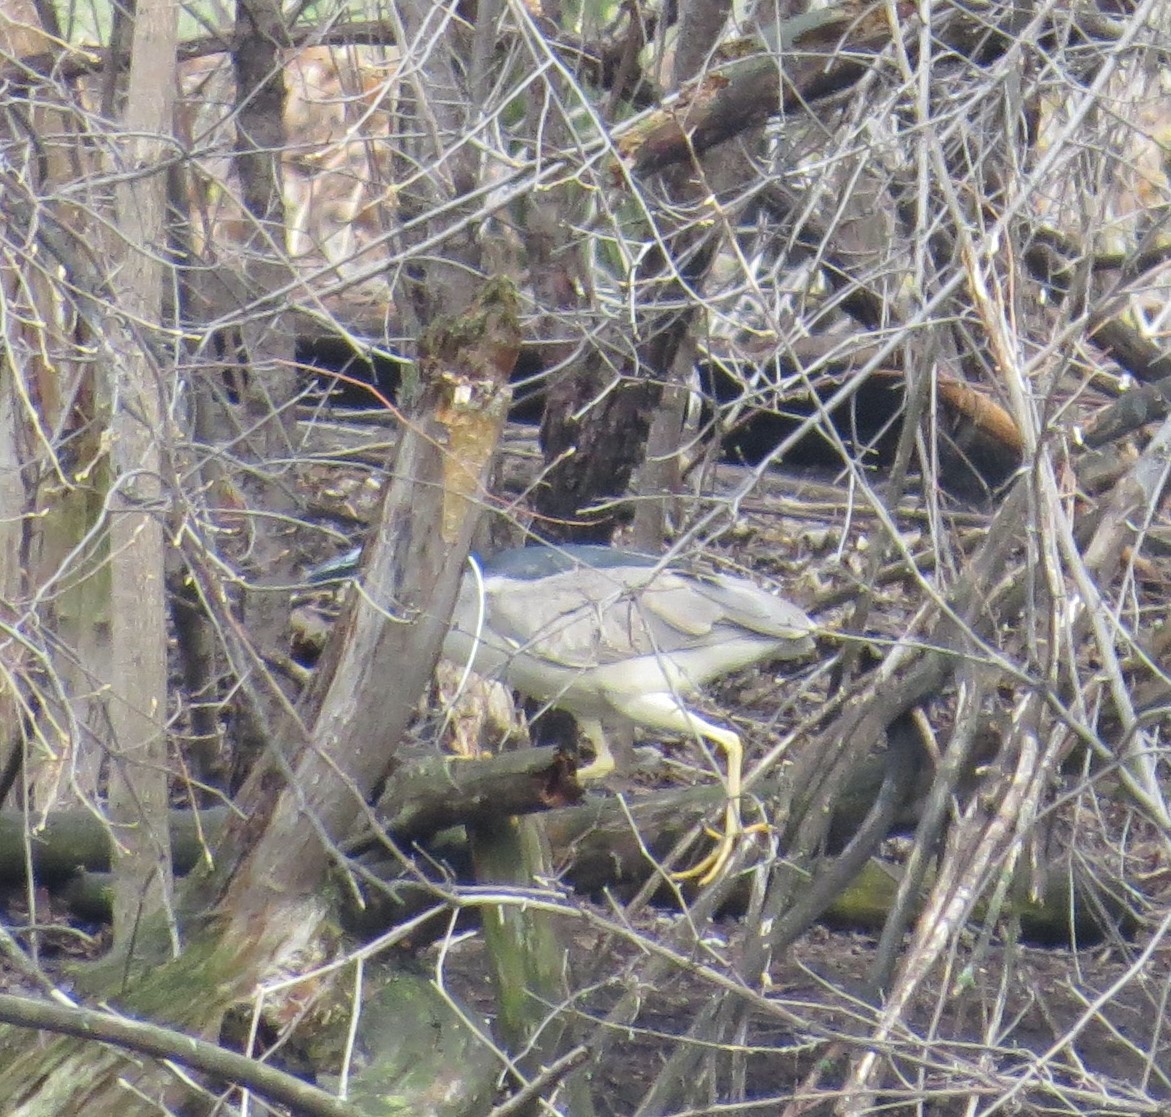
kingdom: Animalia
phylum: Chordata
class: Aves
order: Pelecaniformes
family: Ardeidae
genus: Nycticorax
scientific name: Nycticorax nycticorax
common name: Black-crowned night heron
